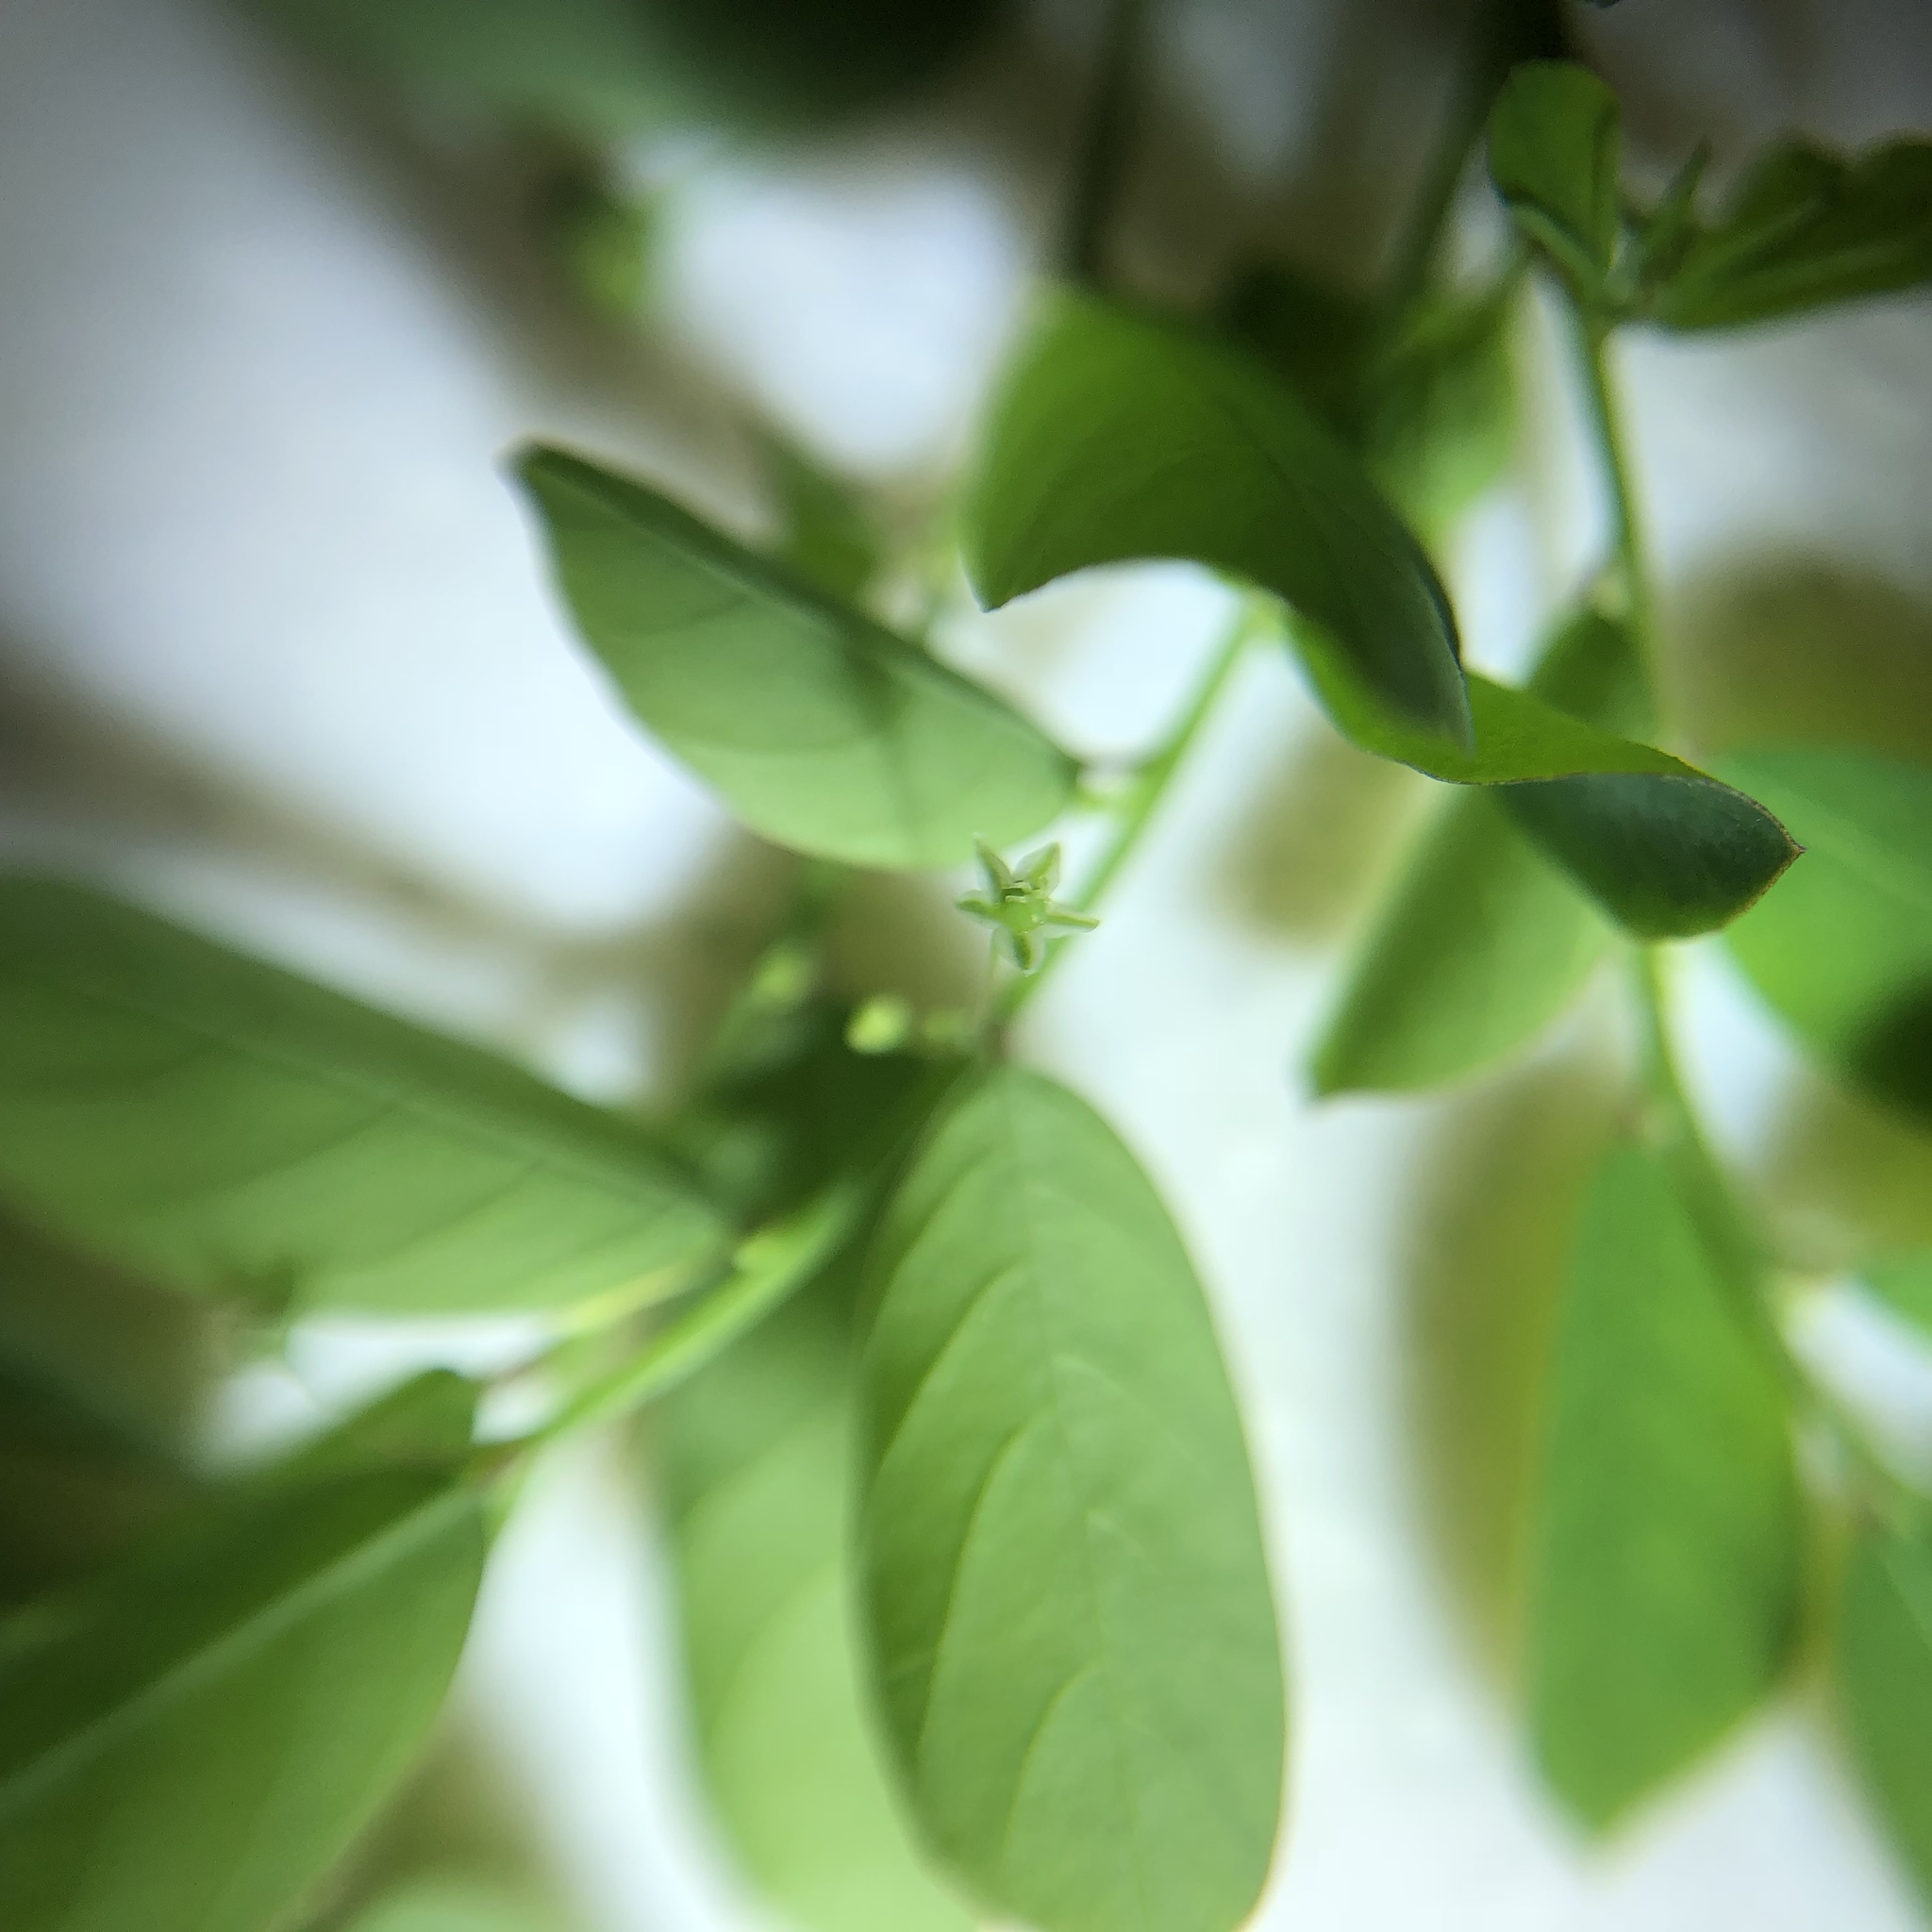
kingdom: Plantae
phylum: Tracheophyta
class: Magnoliopsida
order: Malpighiales
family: Phyllanthaceae
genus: Phyllanthus
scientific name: Phyllanthus tenellus
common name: Mascarene island leaf-flower
